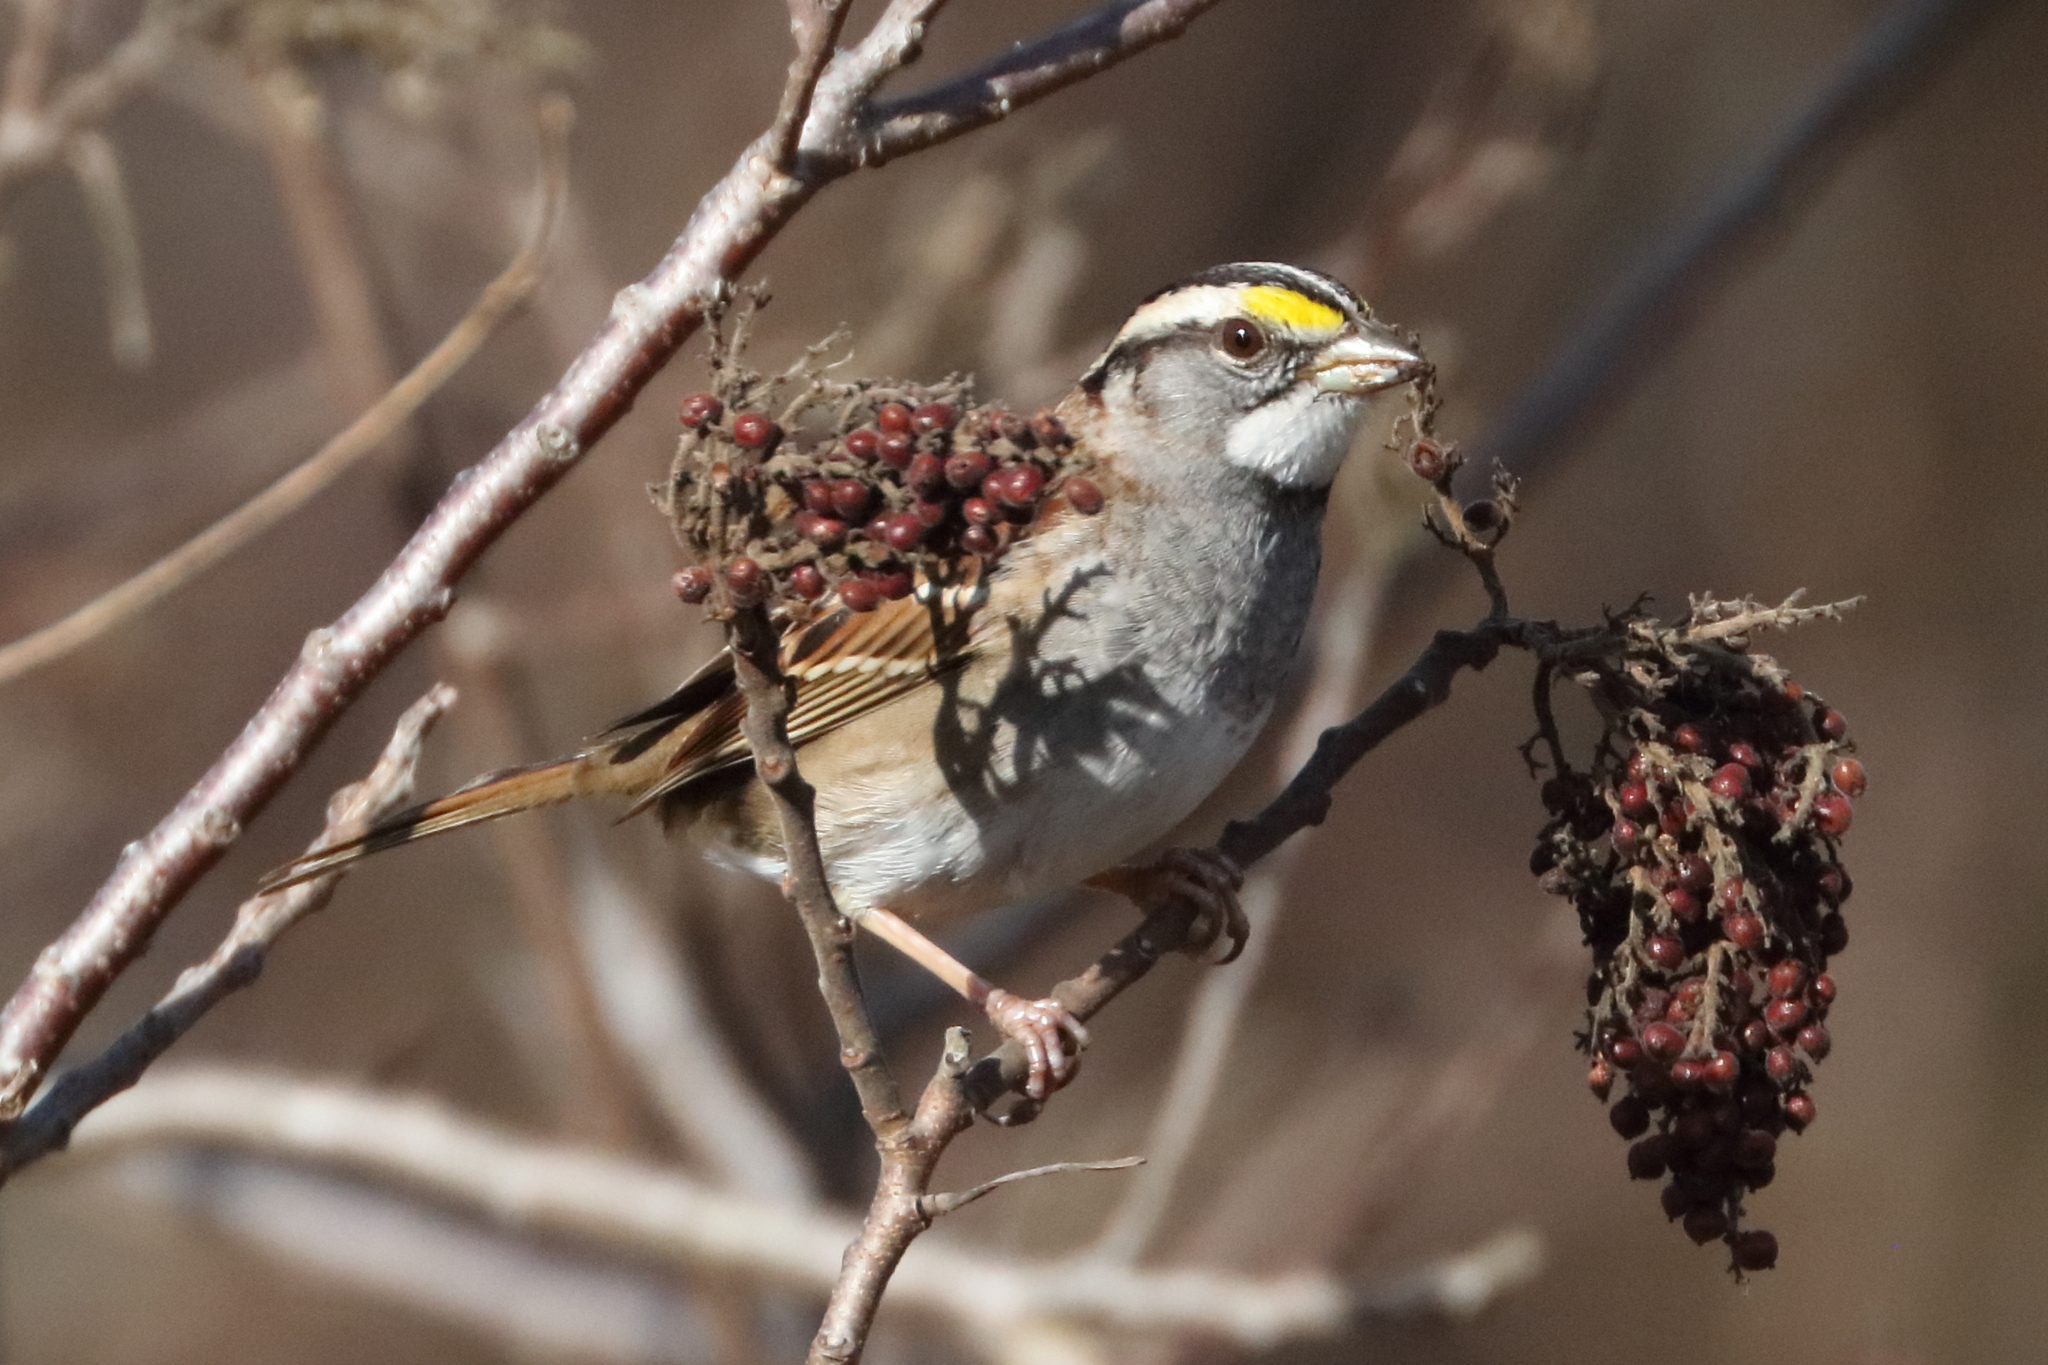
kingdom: Animalia
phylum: Chordata
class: Aves
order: Passeriformes
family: Passerellidae
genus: Zonotrichia
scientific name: Zonotrichia albicollis
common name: White-throated sparrow
